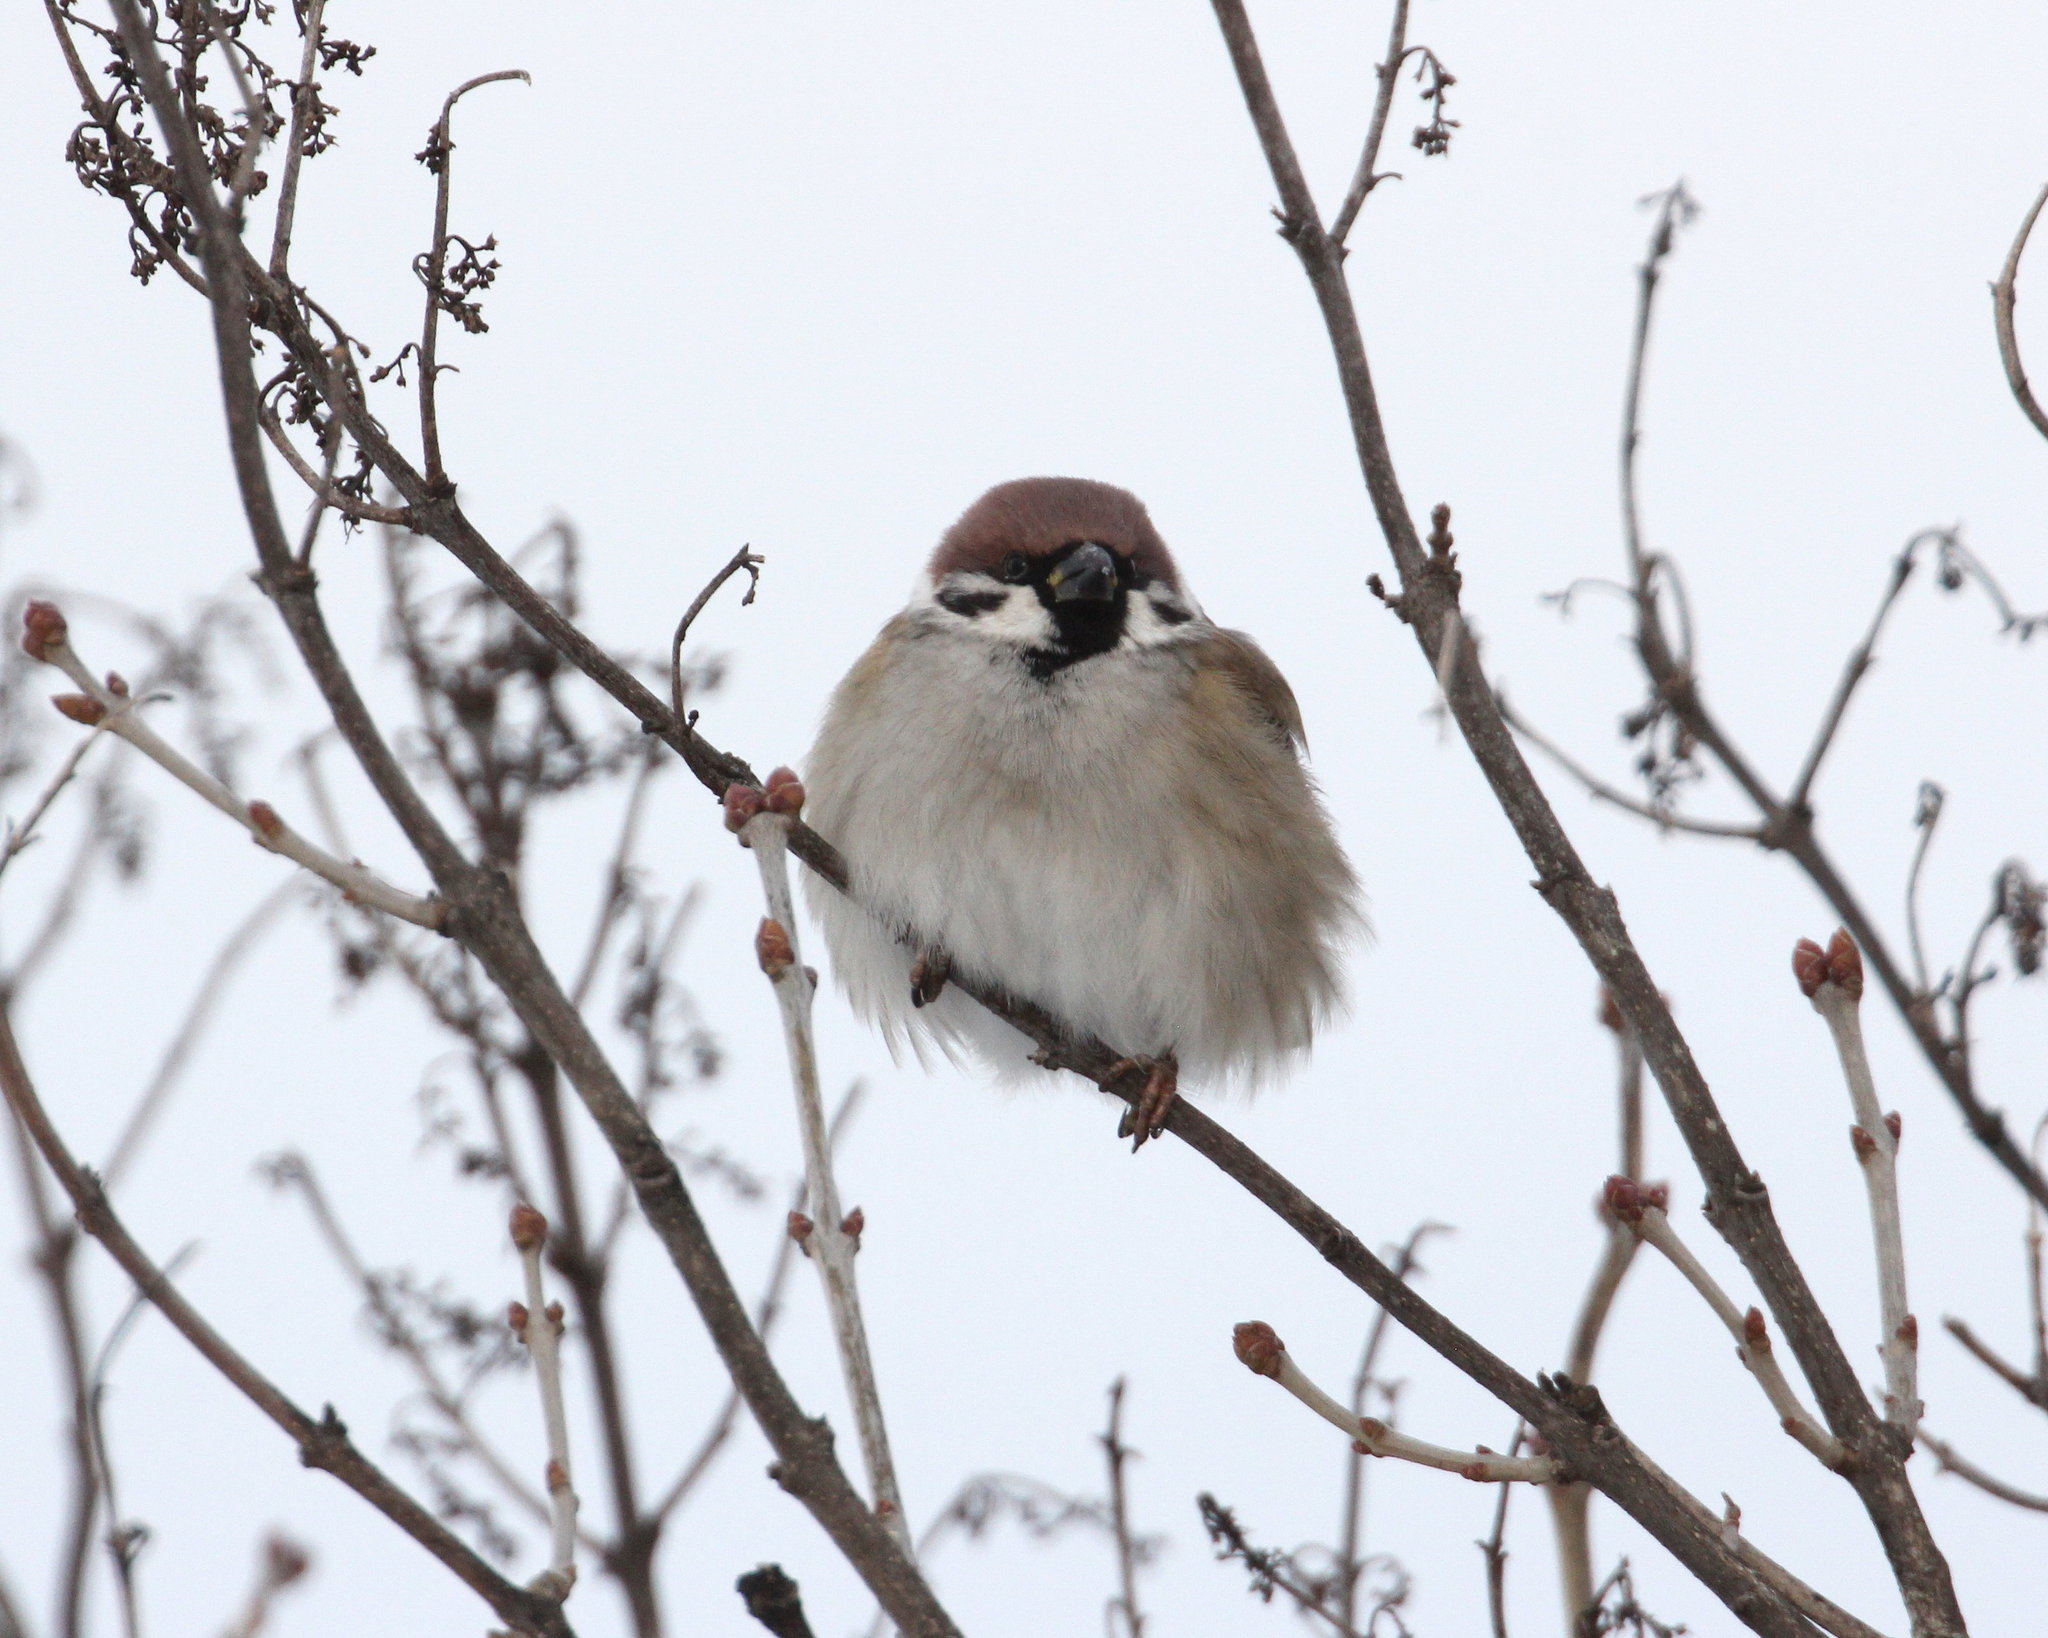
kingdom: Animalia
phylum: Chordata
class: Aves
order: Passeriformes
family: Passeridae
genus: Passer
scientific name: Passer montanus
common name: Eurasian tree sparrow
